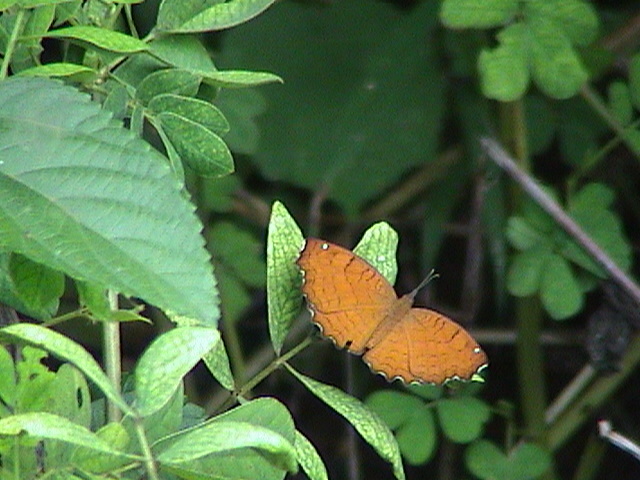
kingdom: Animalia
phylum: Arthropoda
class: Insecta
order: Lepidoptera
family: Nymphalidae
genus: Ariadne
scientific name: Ariadne ariadne
